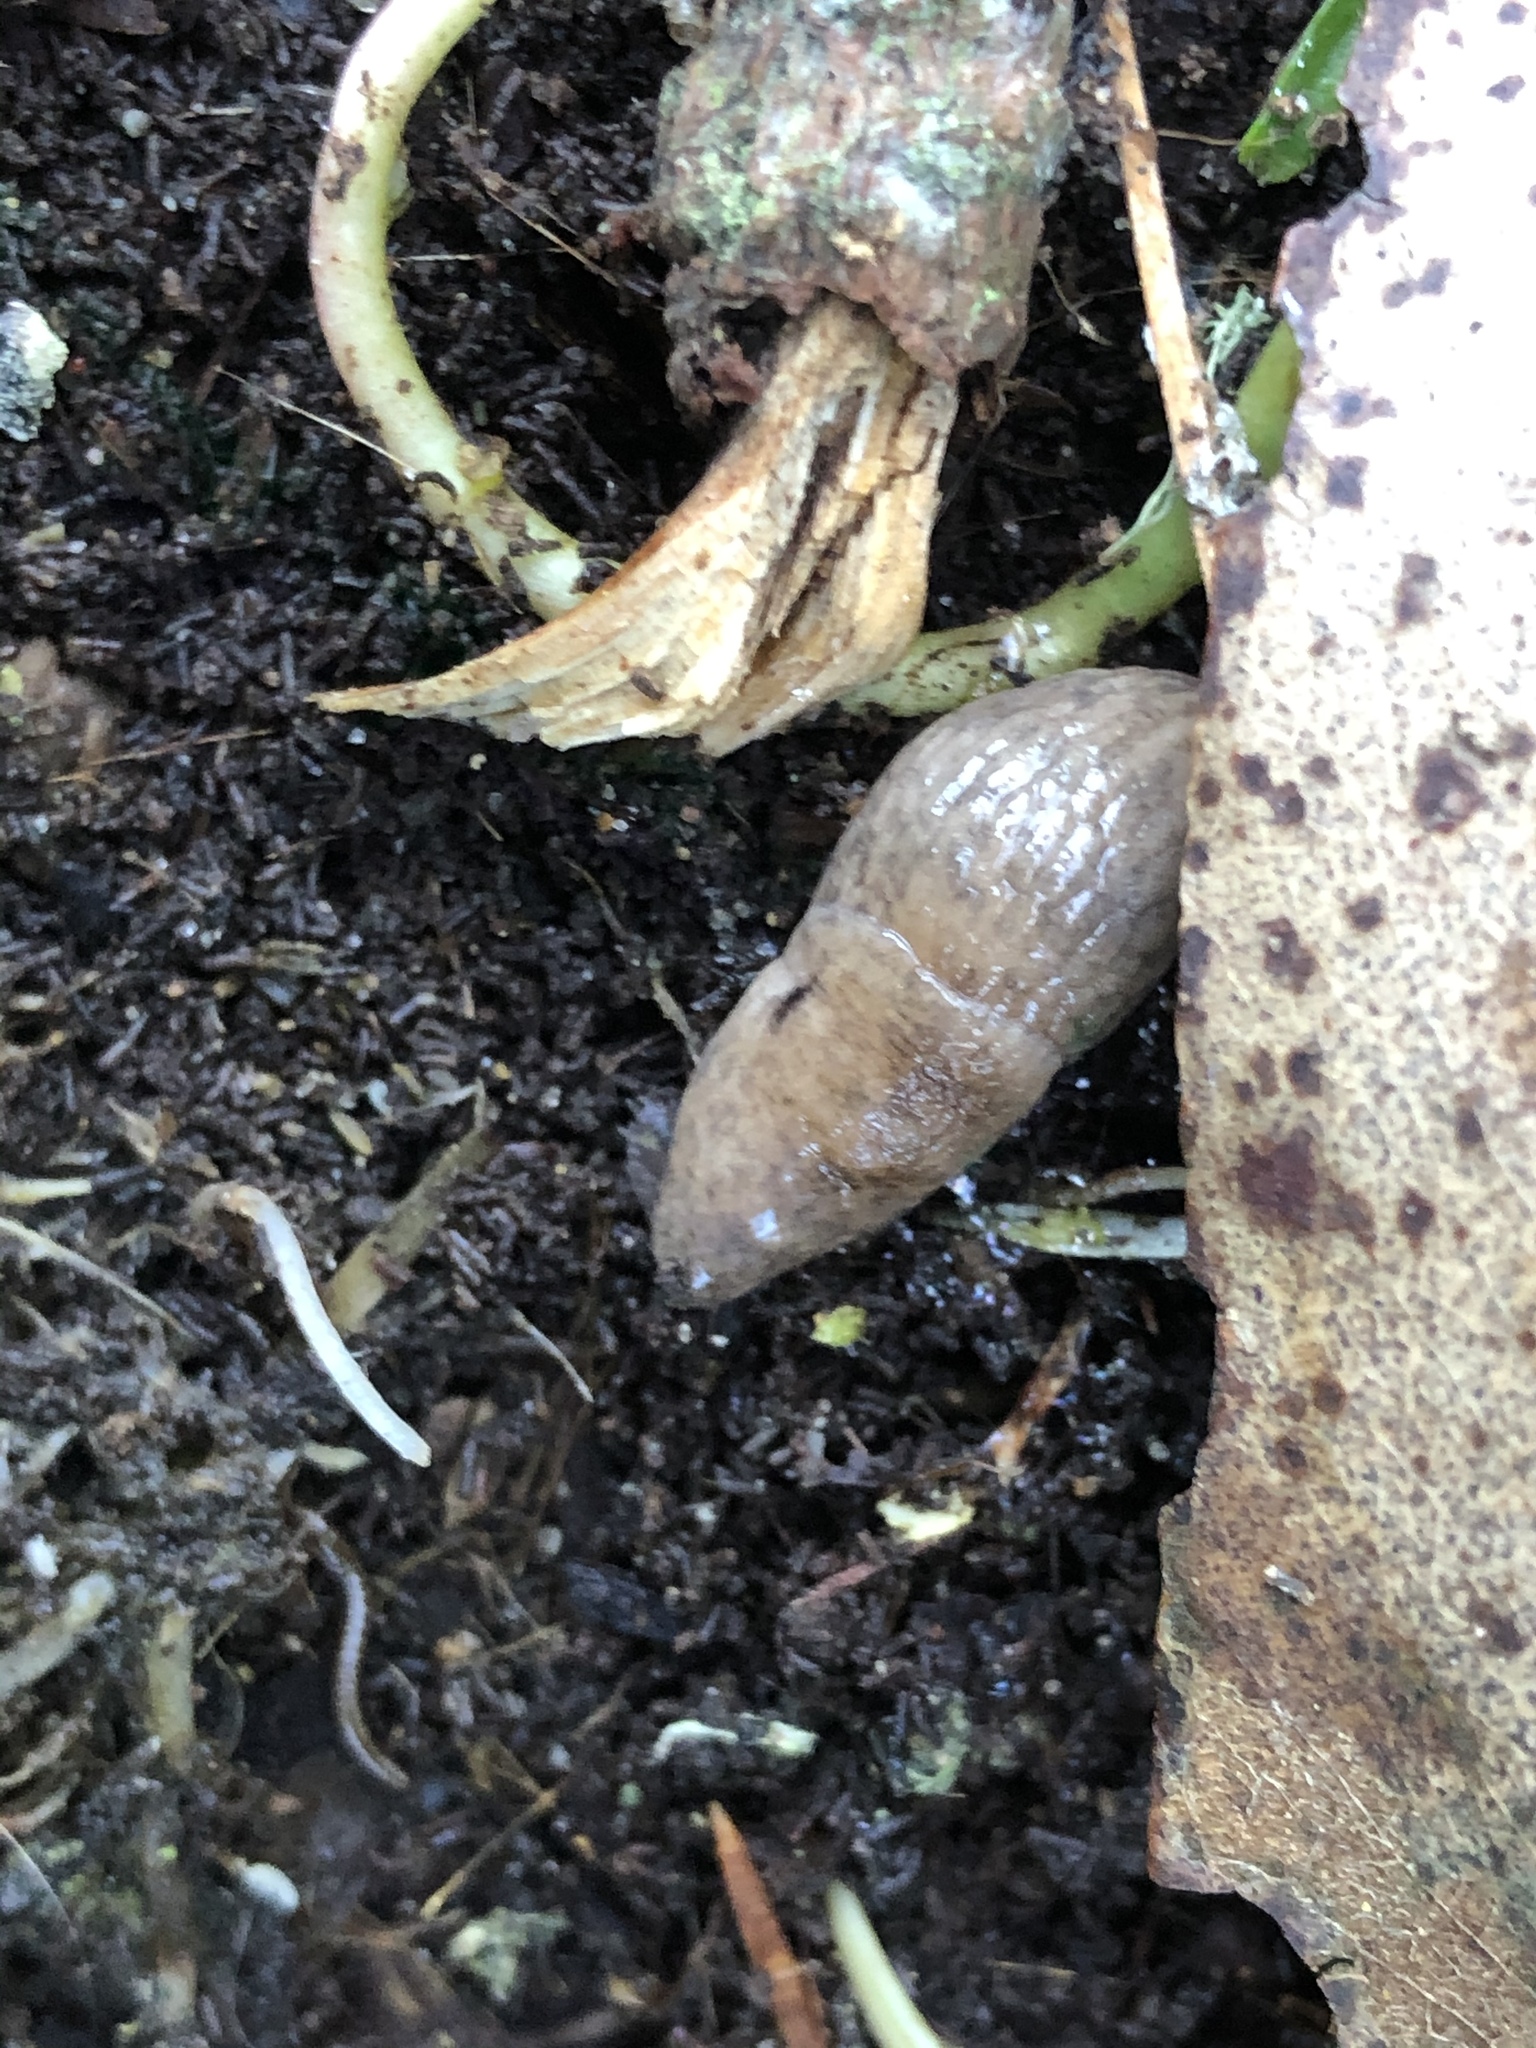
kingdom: Animalia
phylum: Mollusca
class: Gastropoda
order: Stylommatophora
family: Agriolimacidae
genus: Deroceras
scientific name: Deroceras reticulatum
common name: Gray field slug
